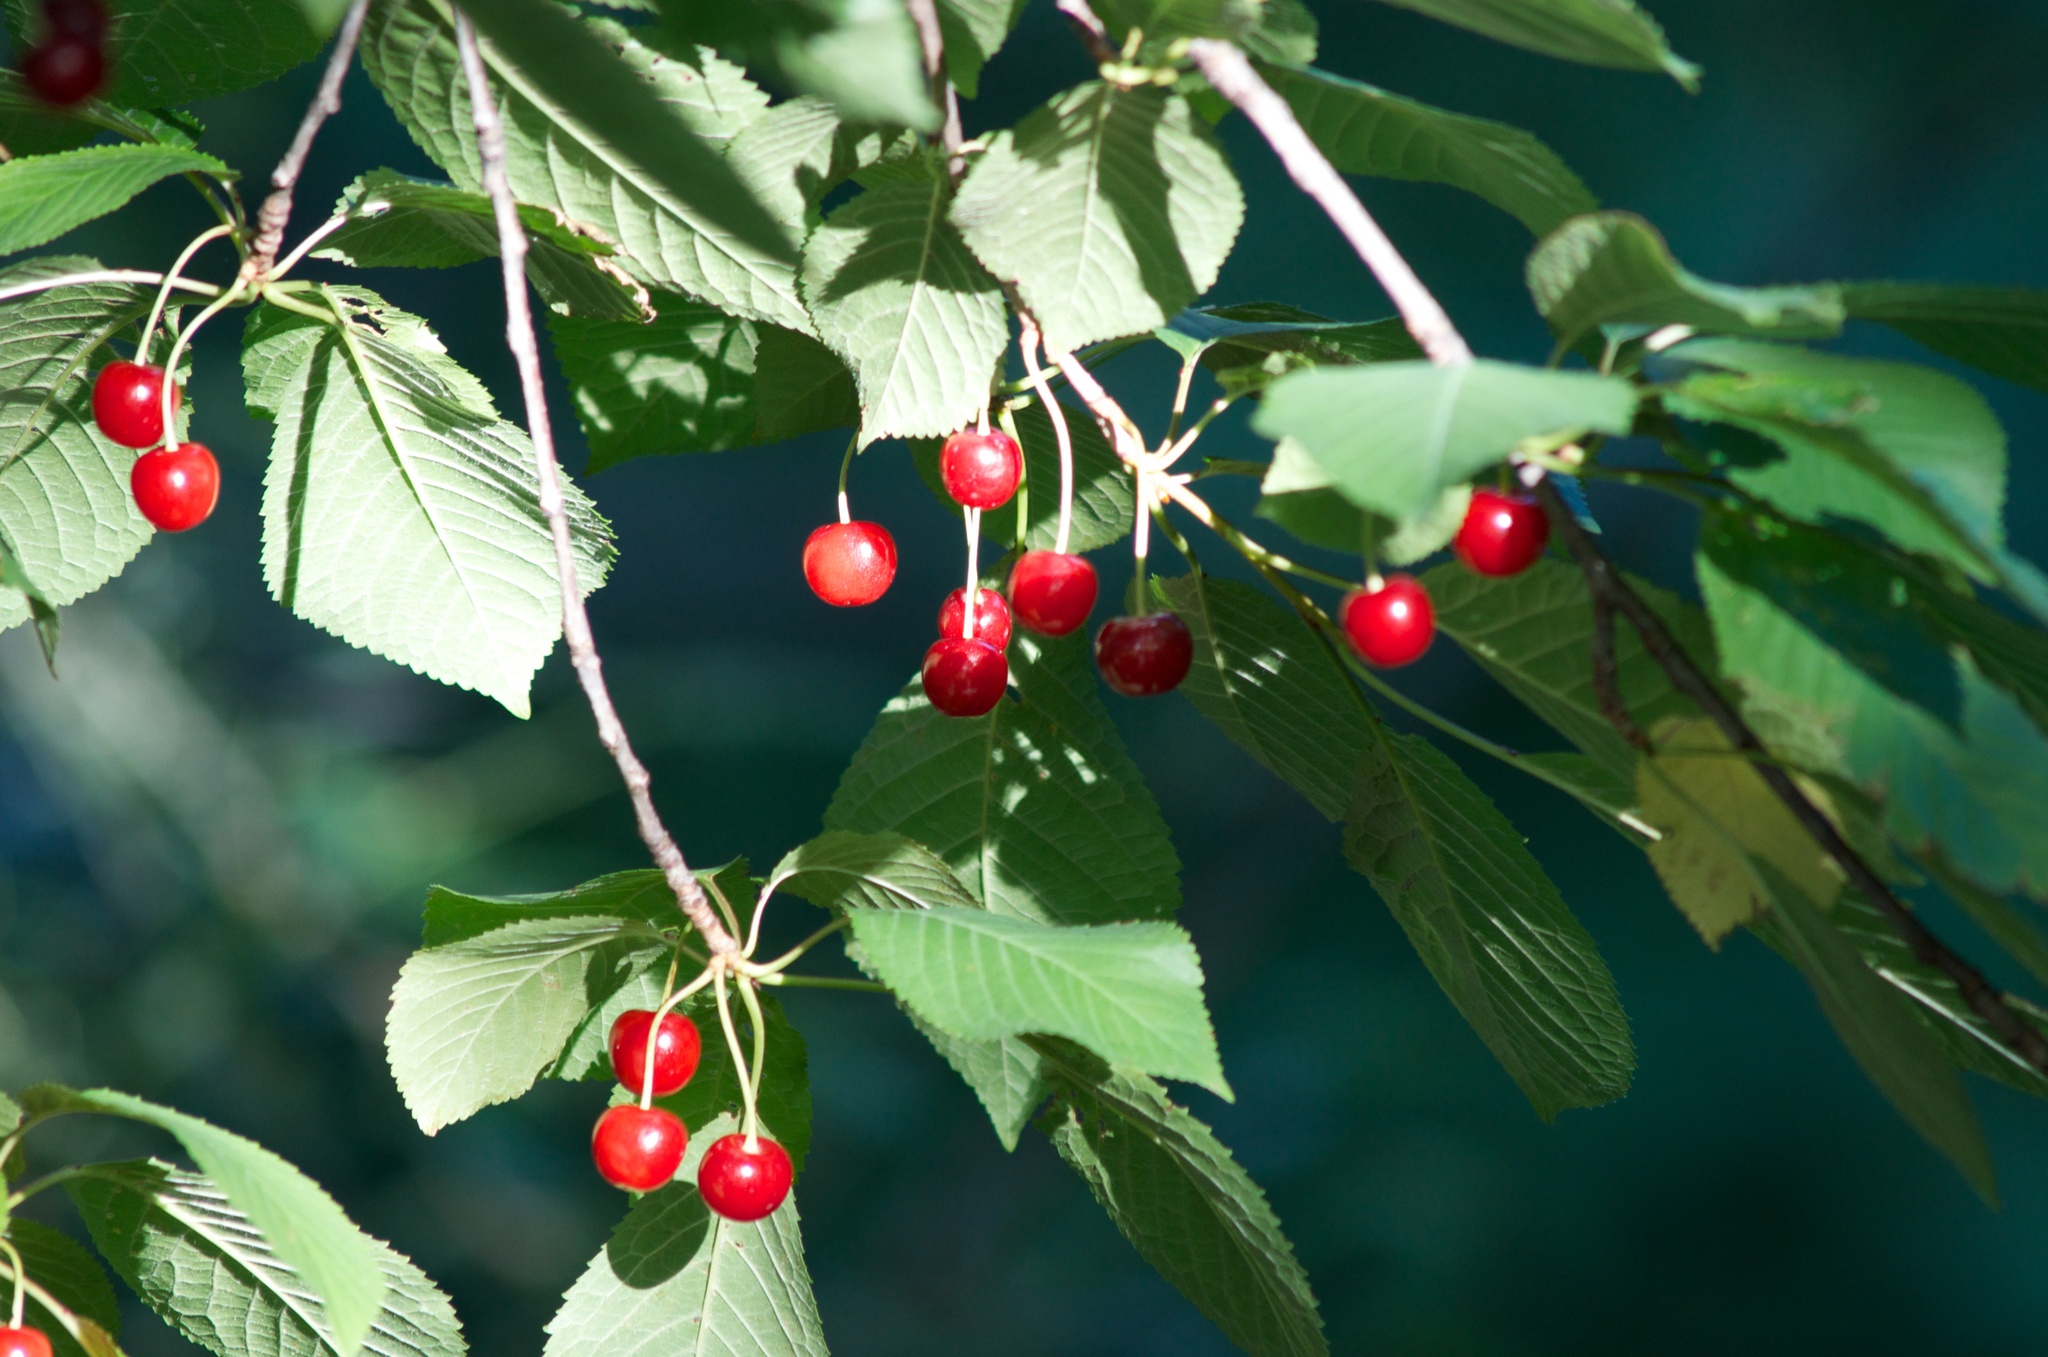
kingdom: Plantae
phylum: Tracheophyta
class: Magnoliopsida
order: Rosales
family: Rosaceae
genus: Prunus
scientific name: Prunus avium
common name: Sweet cherry
